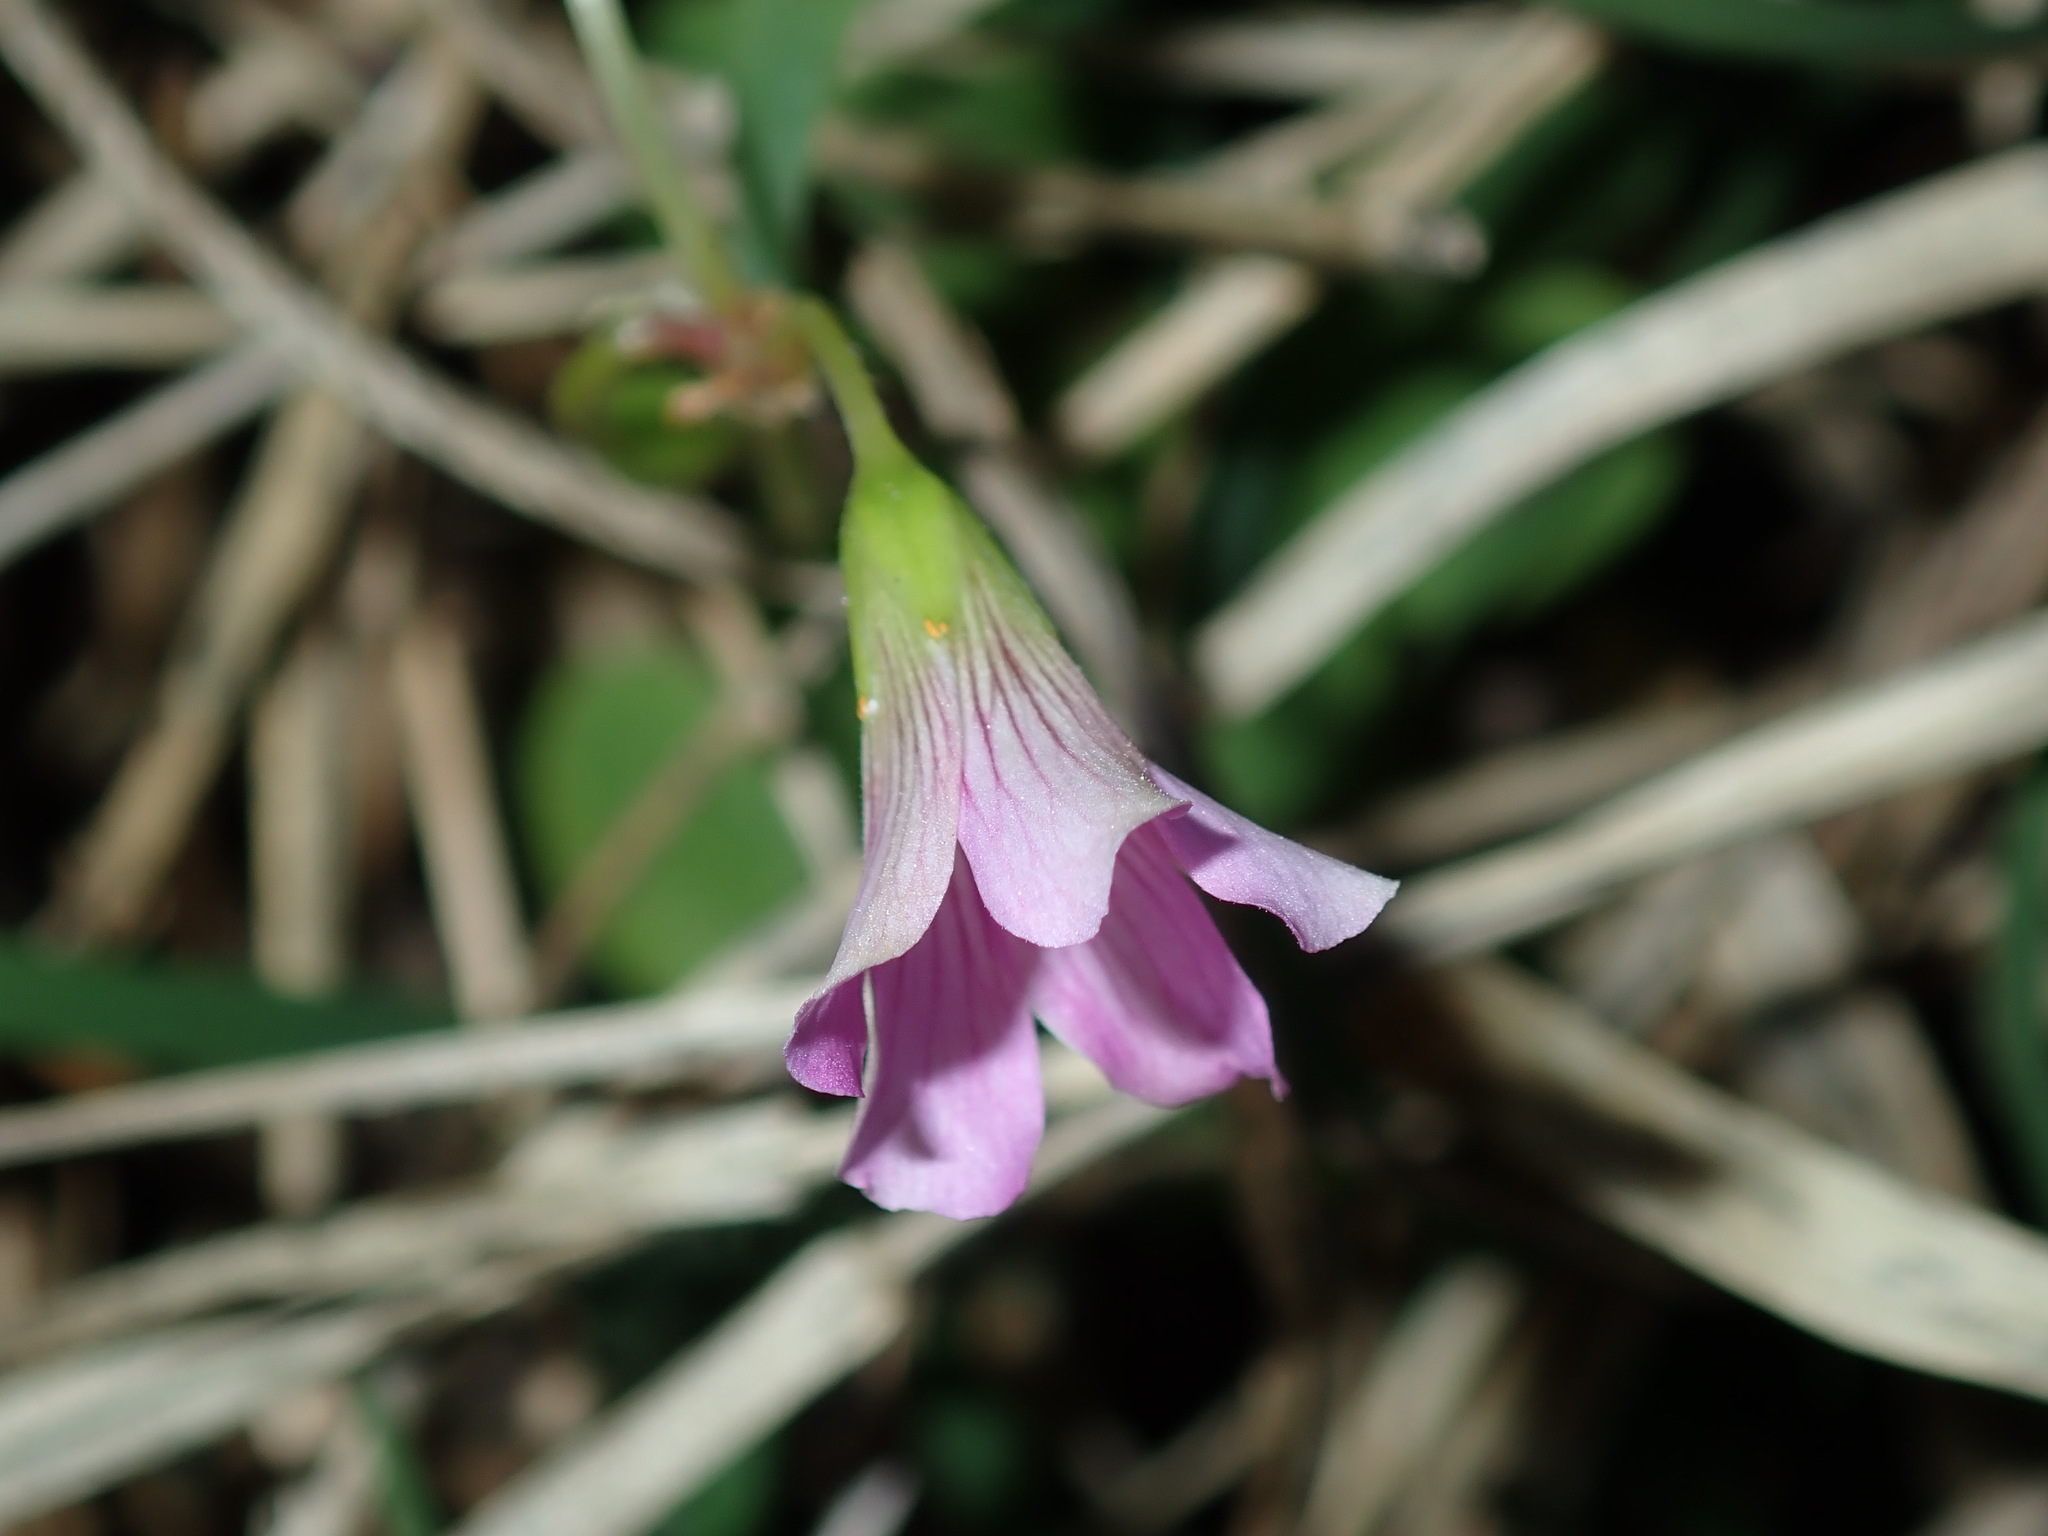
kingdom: Plantae
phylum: Tracheophyta
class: Magnoliopsida
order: Oxalidales
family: Oxalidaceae
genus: Oxalis
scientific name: Oxalis debilis
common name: Large-flowered pink-sorrel
